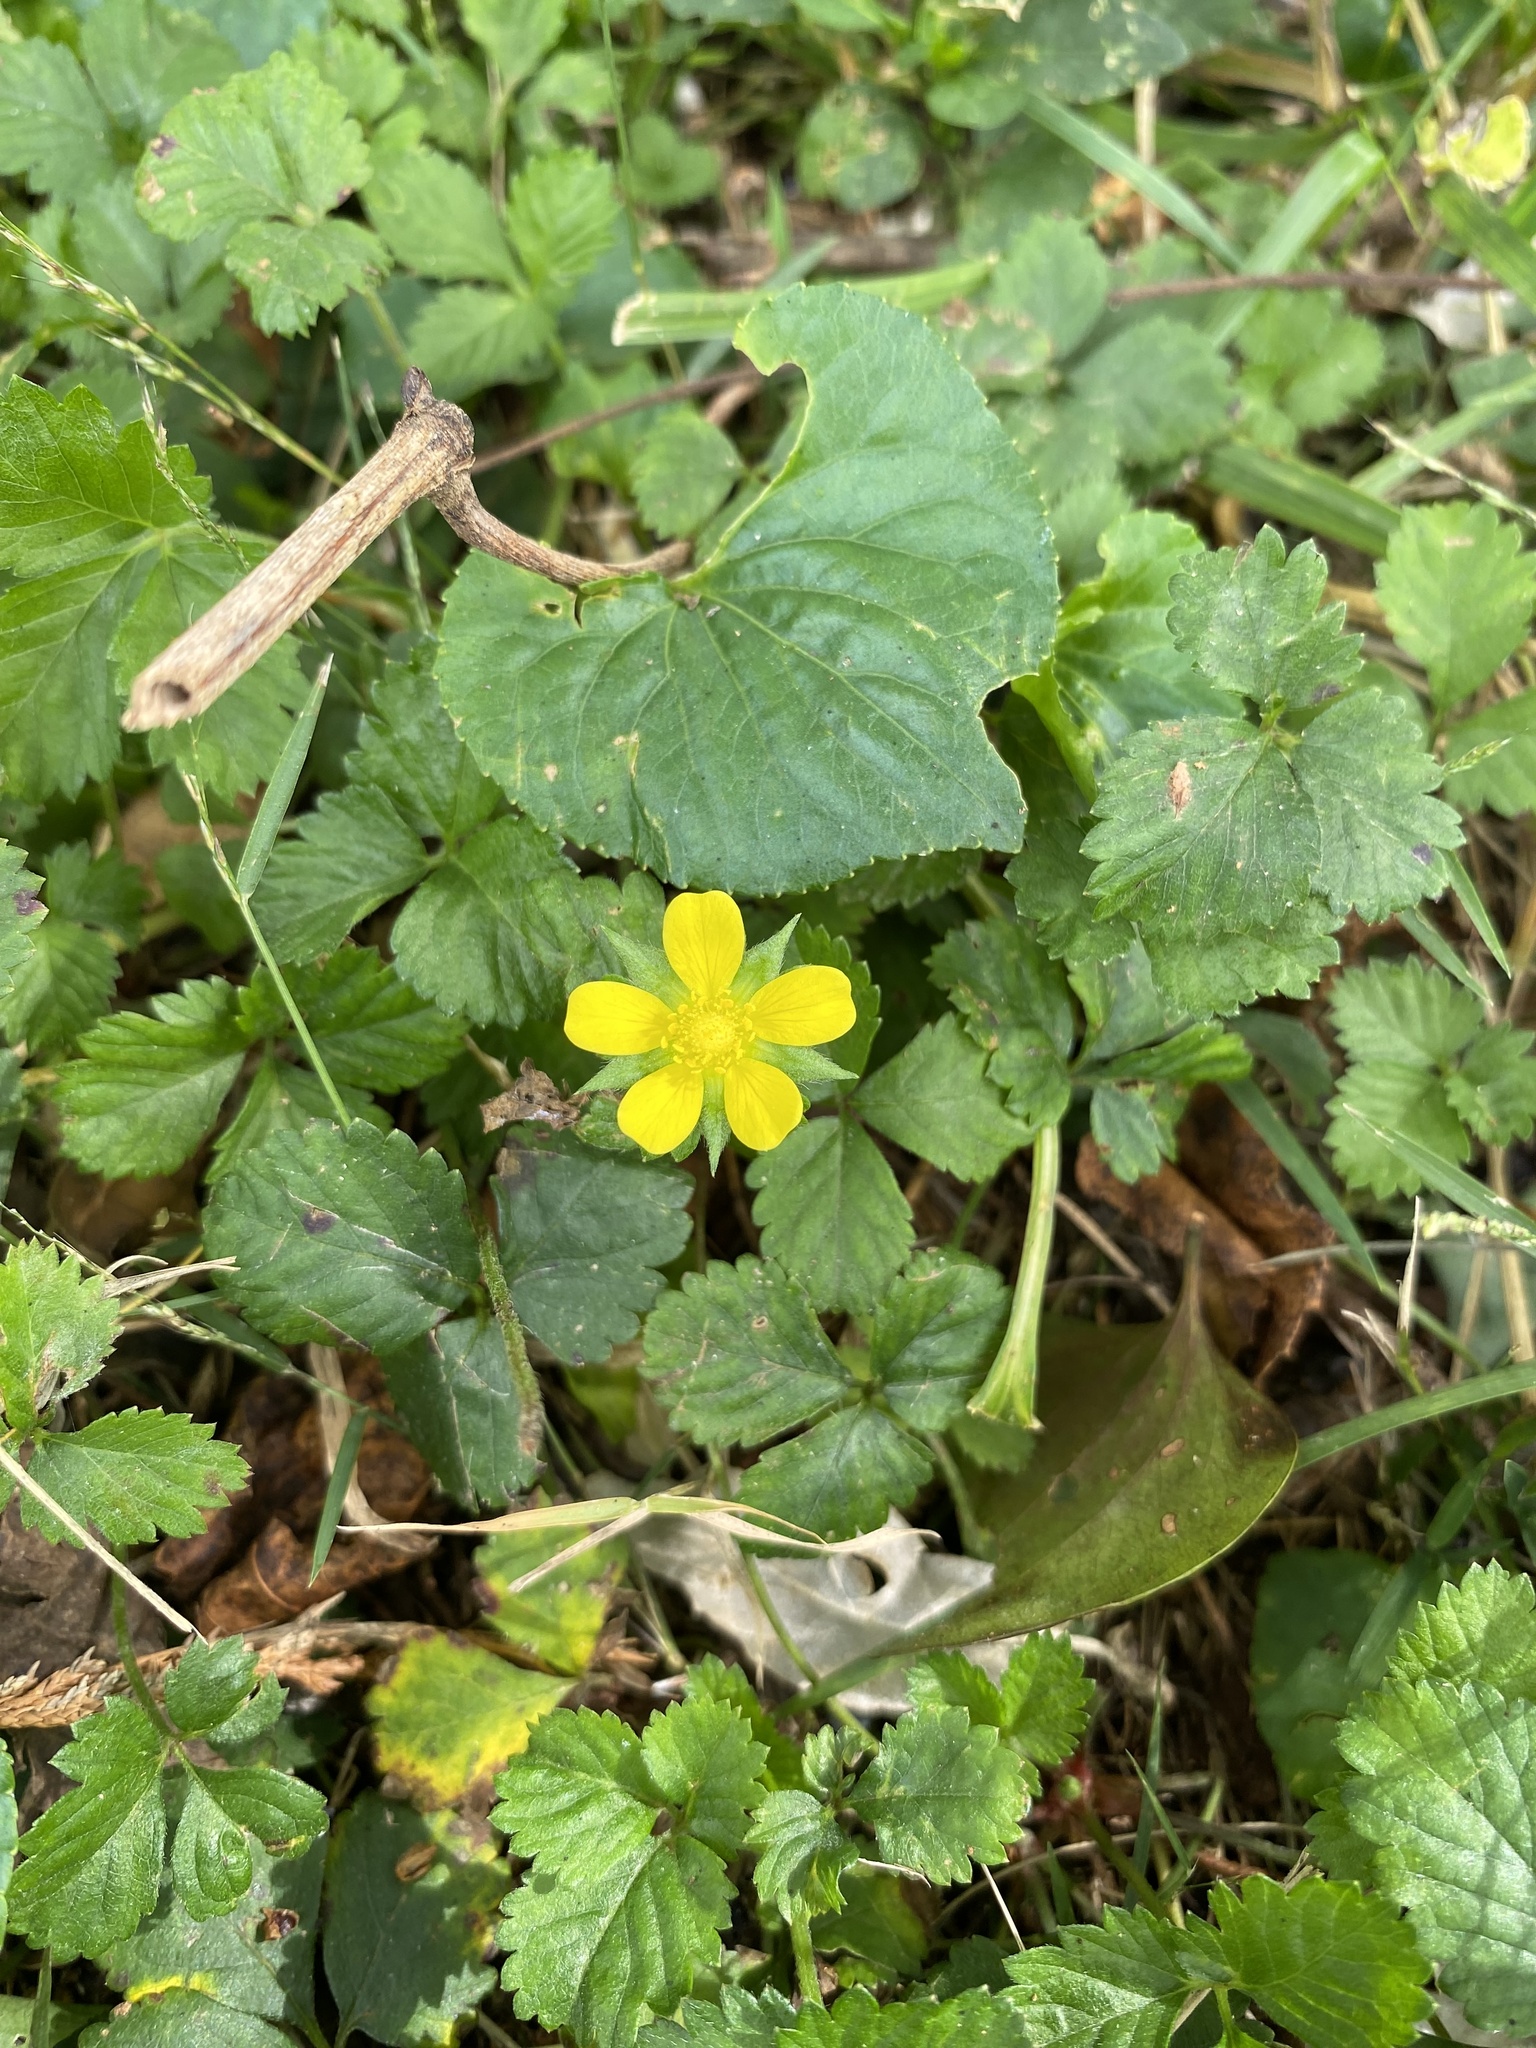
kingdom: Plantae
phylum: Tracheophyta
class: Magnoliopsida
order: Rosales
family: Rosaceae
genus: Potentilla
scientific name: Potentilla indica
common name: Yellow-flowered strawberry
